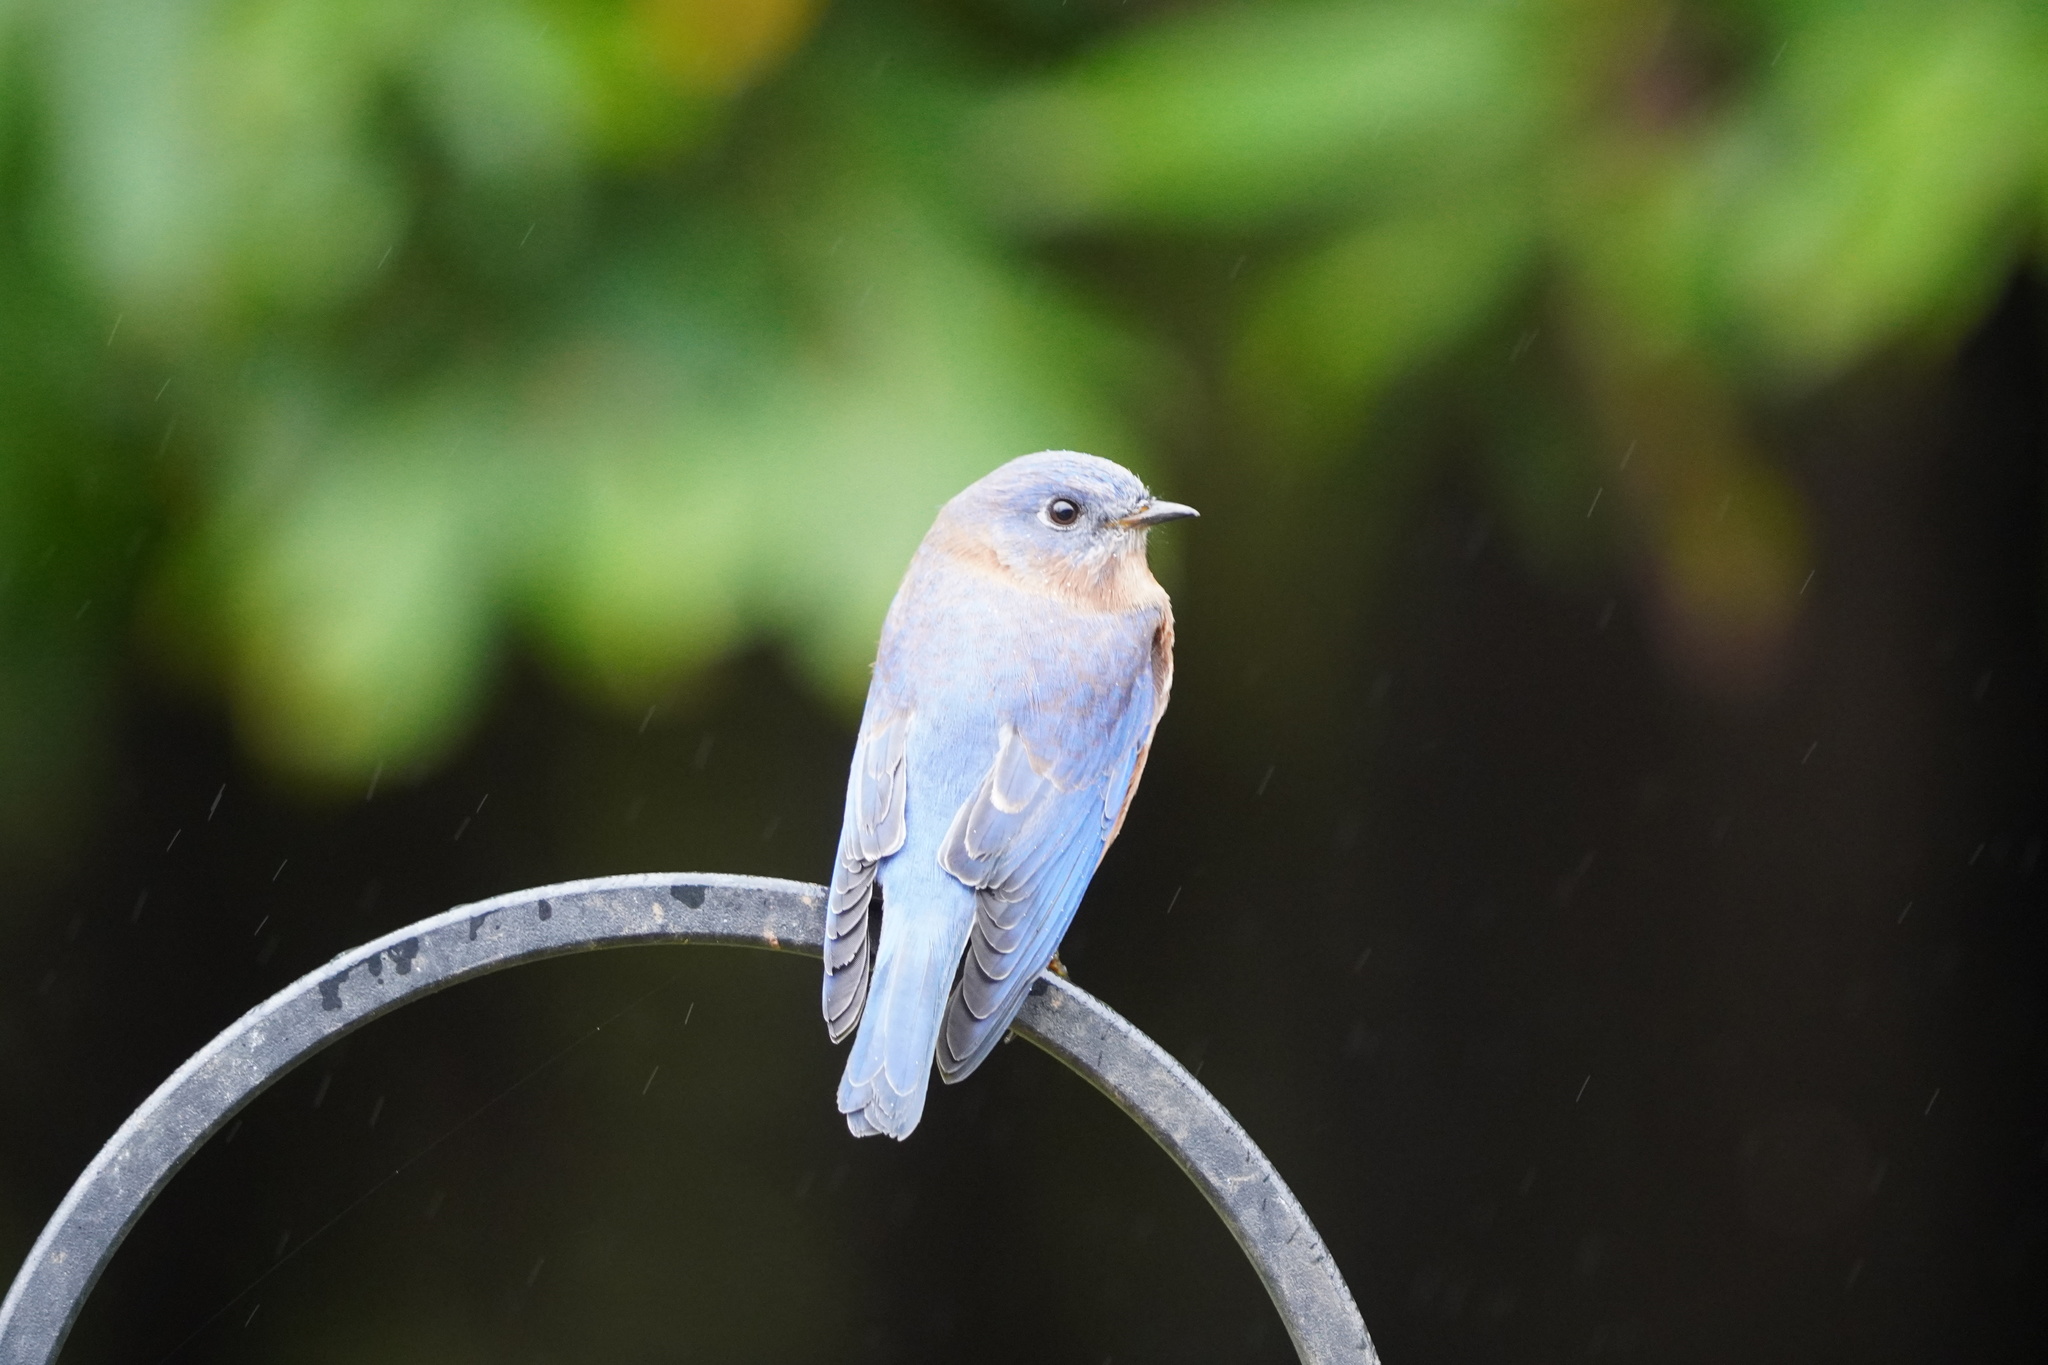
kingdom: Animalia
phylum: Chordata
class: Aves
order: Passeriformes
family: Turdidae
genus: Sialia
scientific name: Sialia sialis
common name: Eastern bluebird
